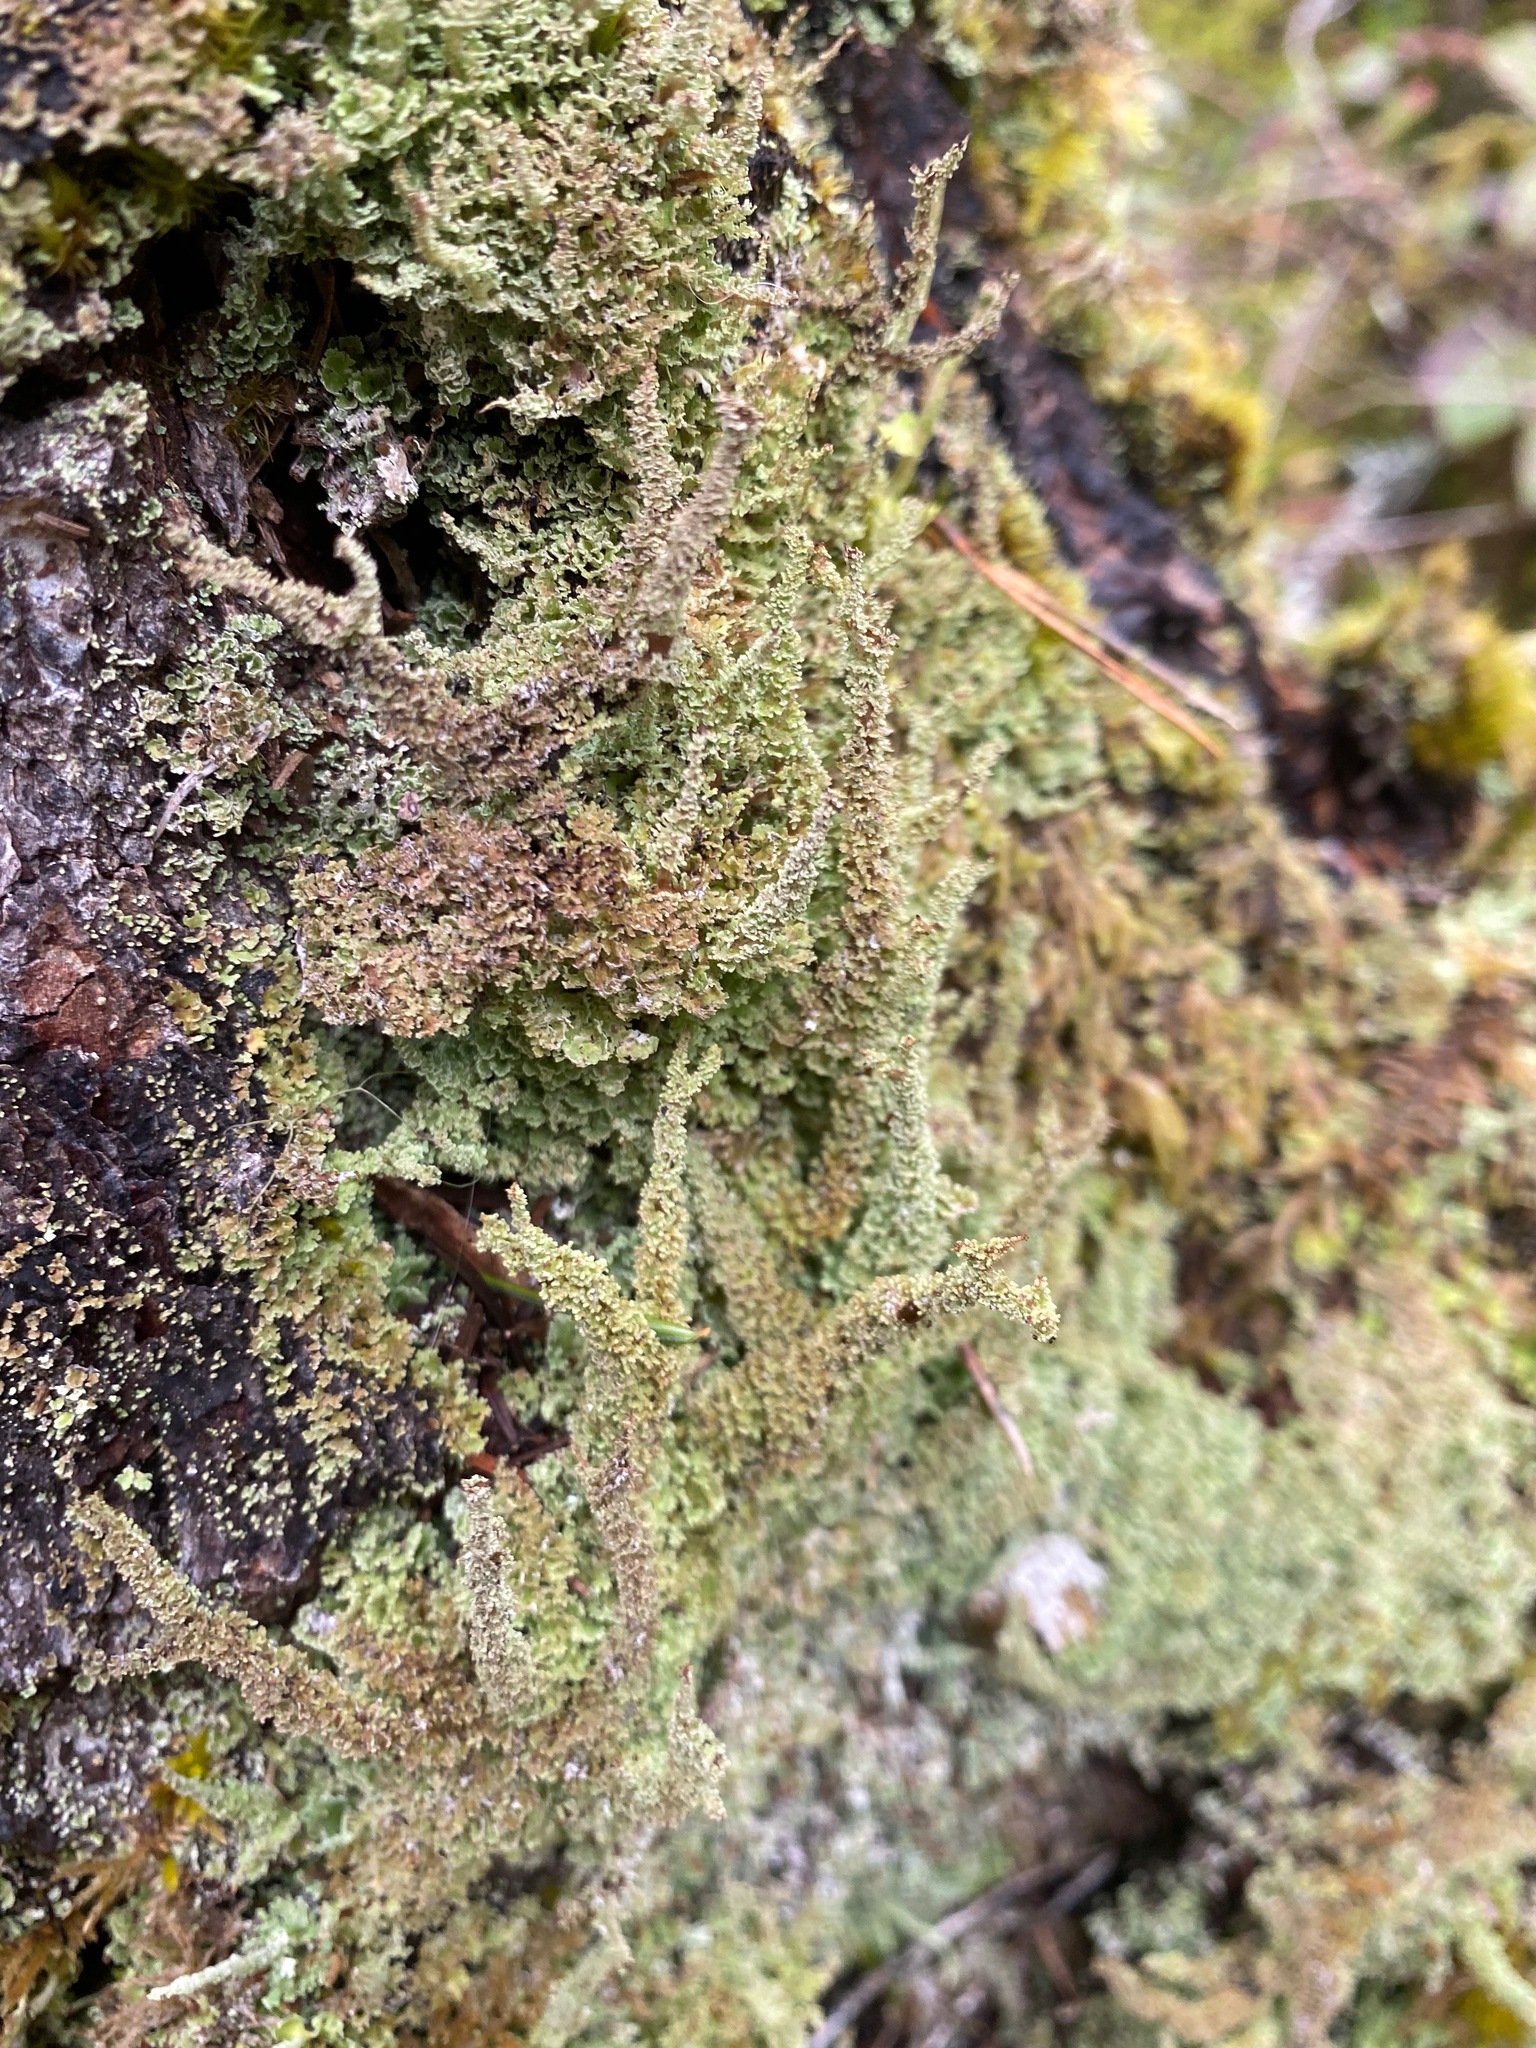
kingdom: Fungi
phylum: Ascomycota
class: Lecanoromycetes
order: Lecanorales
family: Cladoniaceae
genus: Cladonia
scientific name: Cladonia squamosa
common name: Dragon horn
